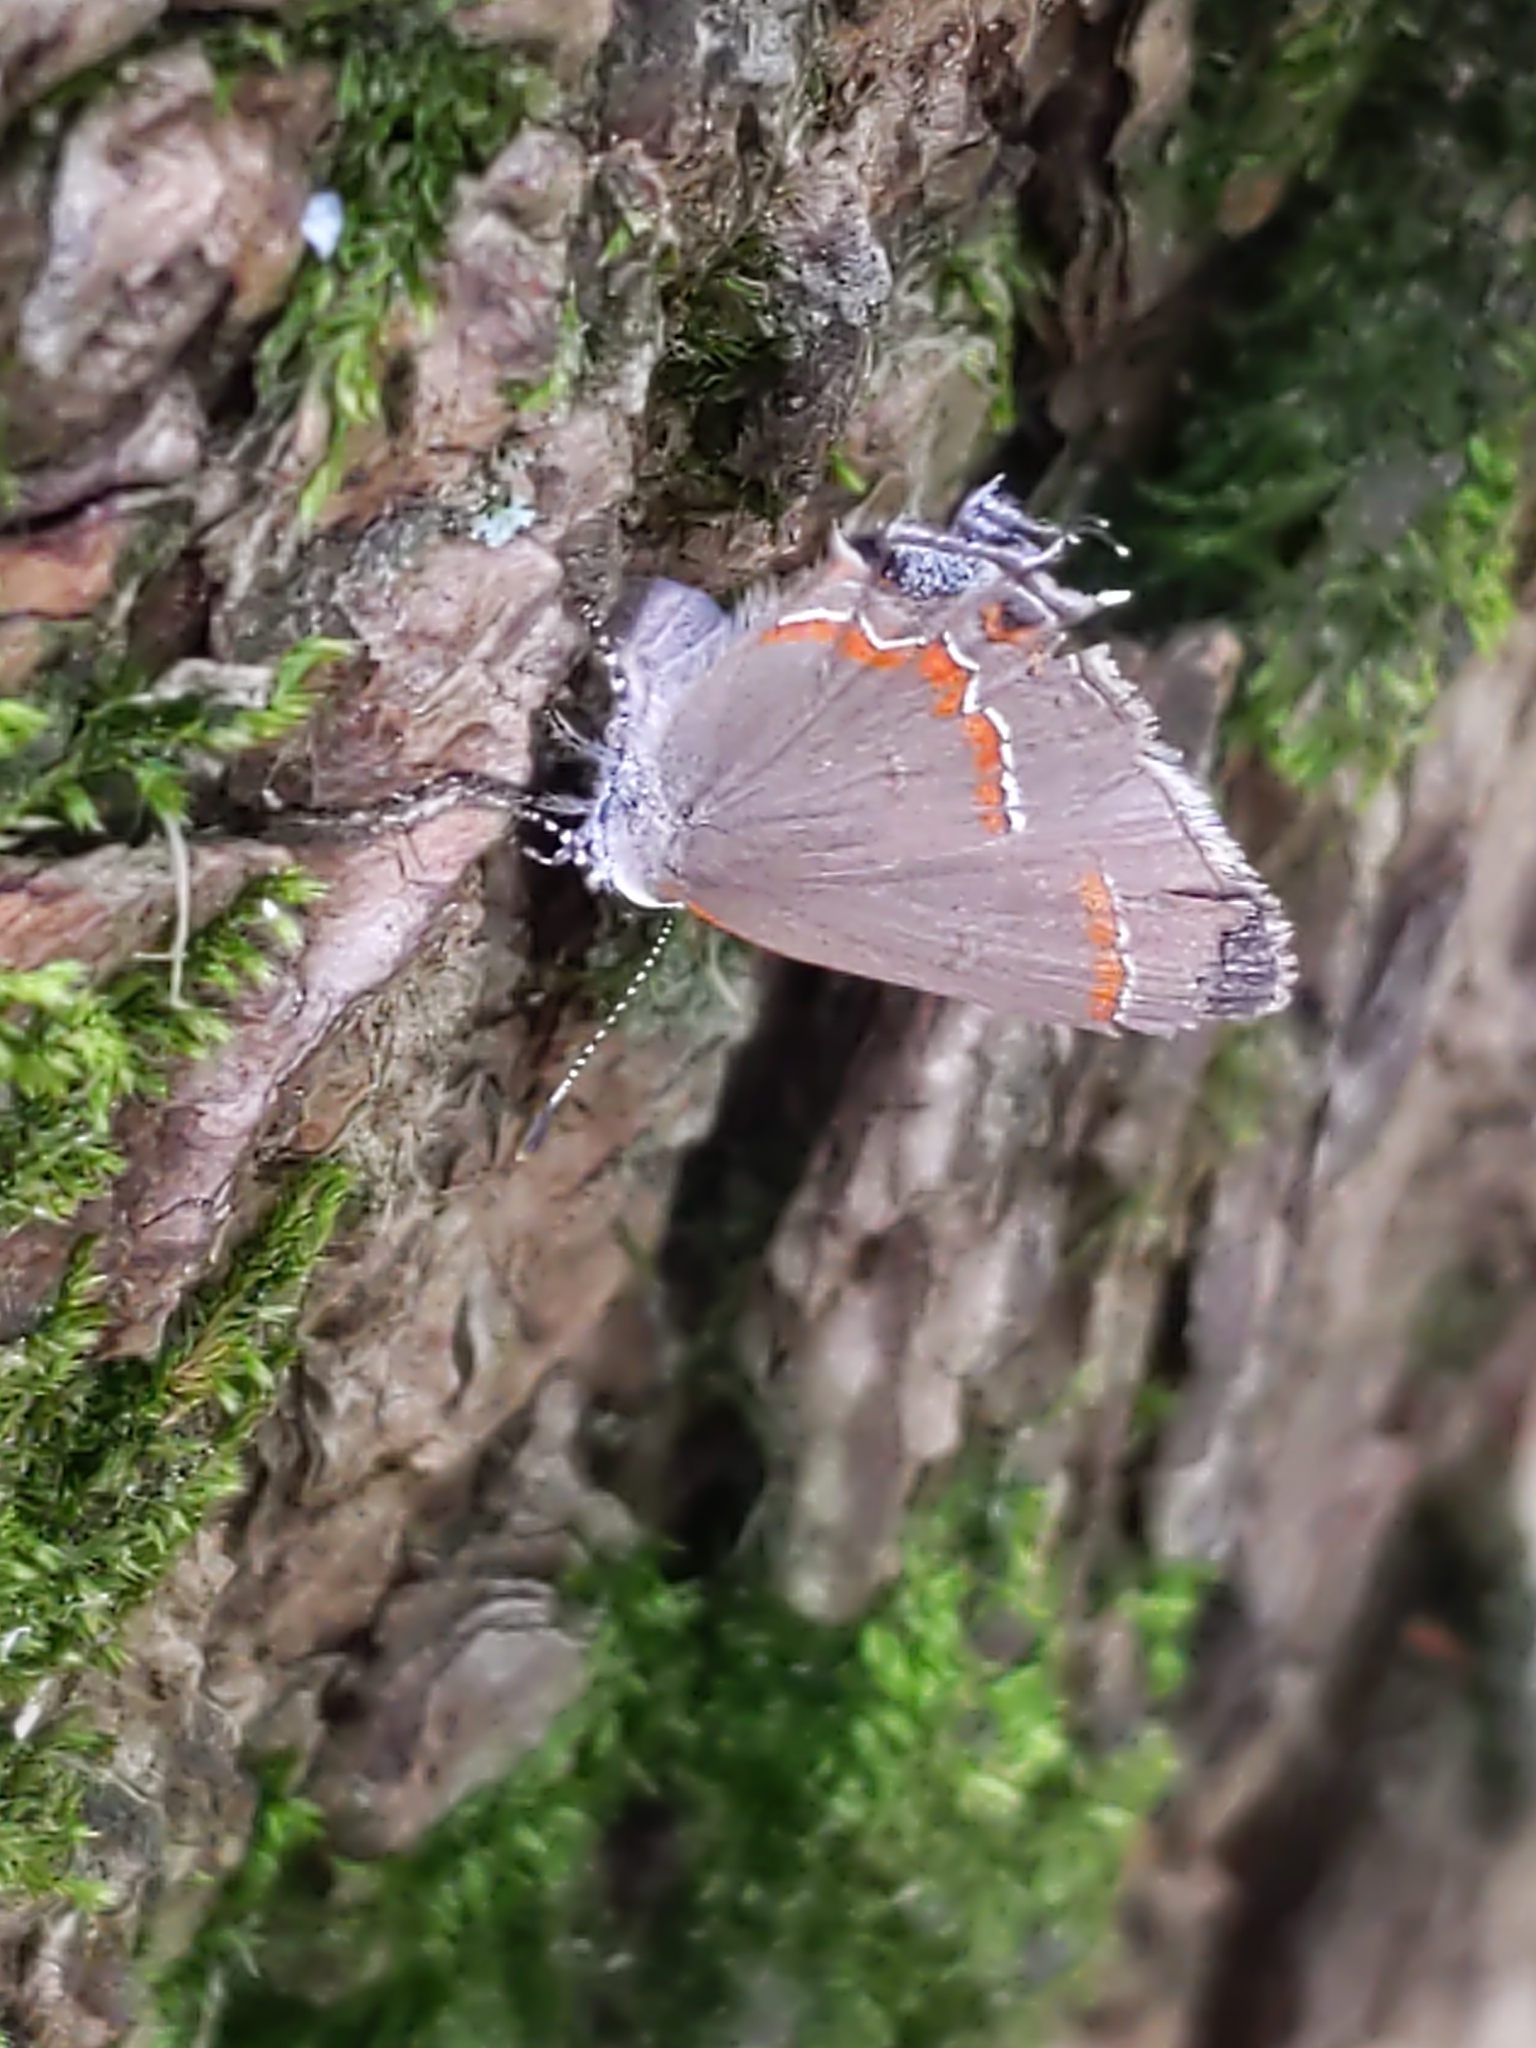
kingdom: Animalia
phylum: Arthropoda
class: Insecta
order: Lepidoptera
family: Lycaenidae
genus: Calycopis
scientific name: Calycopis cecrops
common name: Red-banded hairstreak
